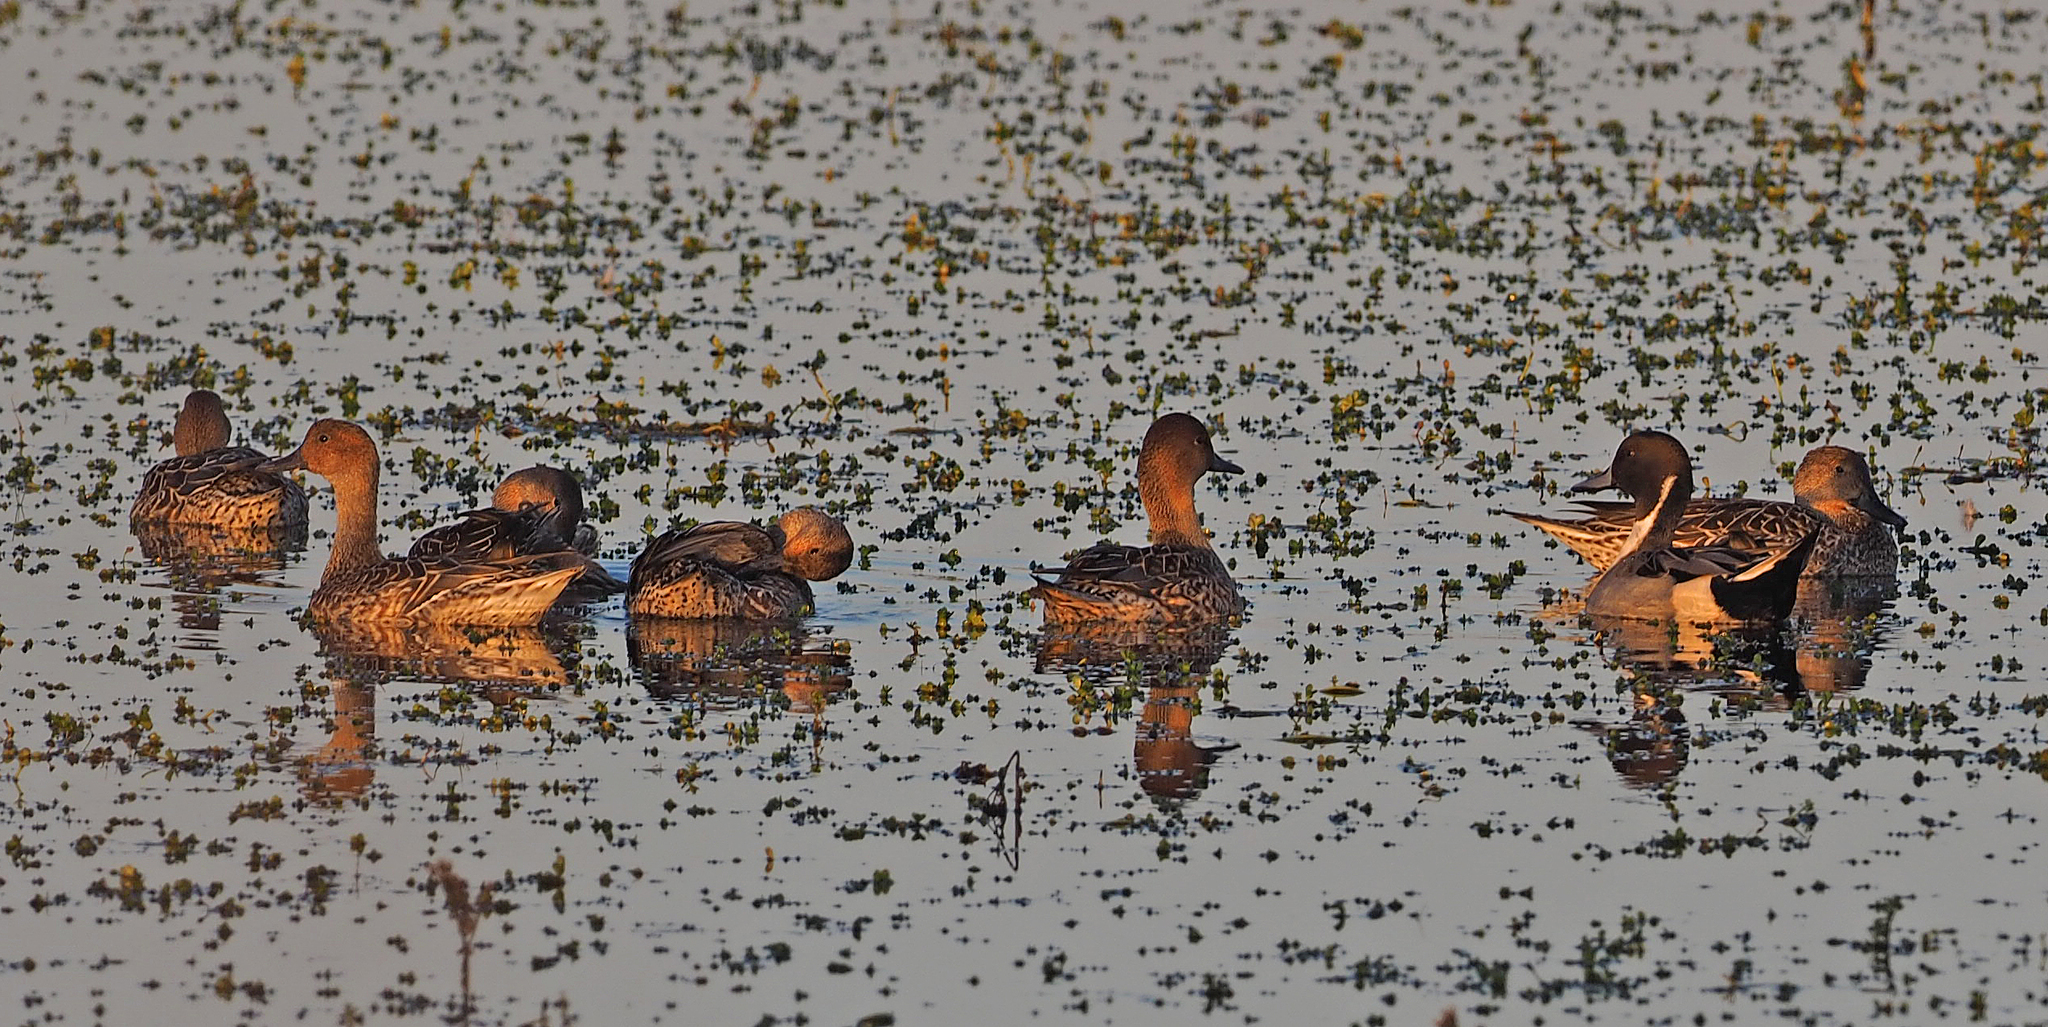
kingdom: Animalia
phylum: Chordata
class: Aves
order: Anseriformes
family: Anatidae
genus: Anas
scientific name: Anas acuta
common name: Northern pintail
